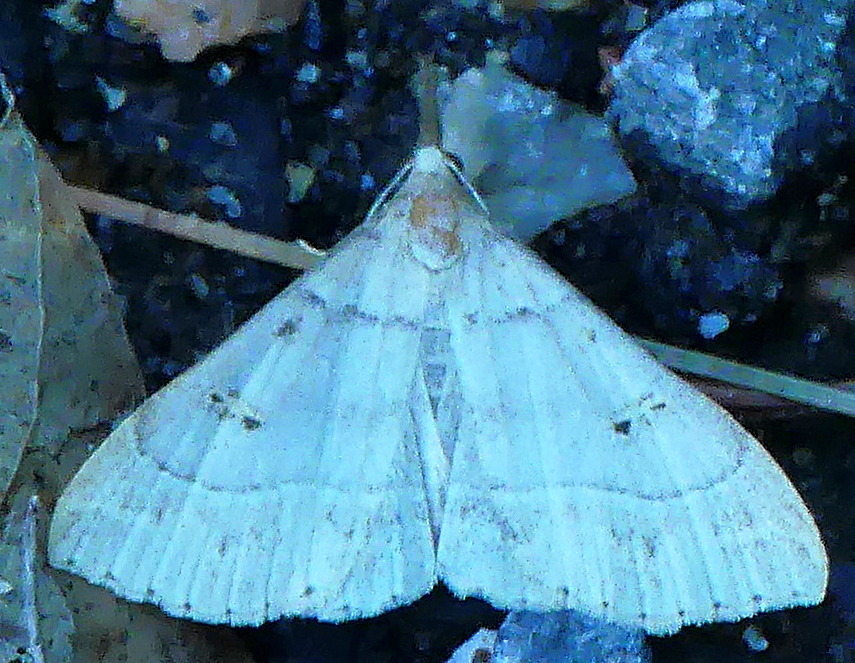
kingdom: Animalia
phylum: Arthropoda
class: Insecta
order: Lepidoptera
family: Erebidae
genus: Renia
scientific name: Renia flavipunctalis
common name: Yellow-spotted renia moth
